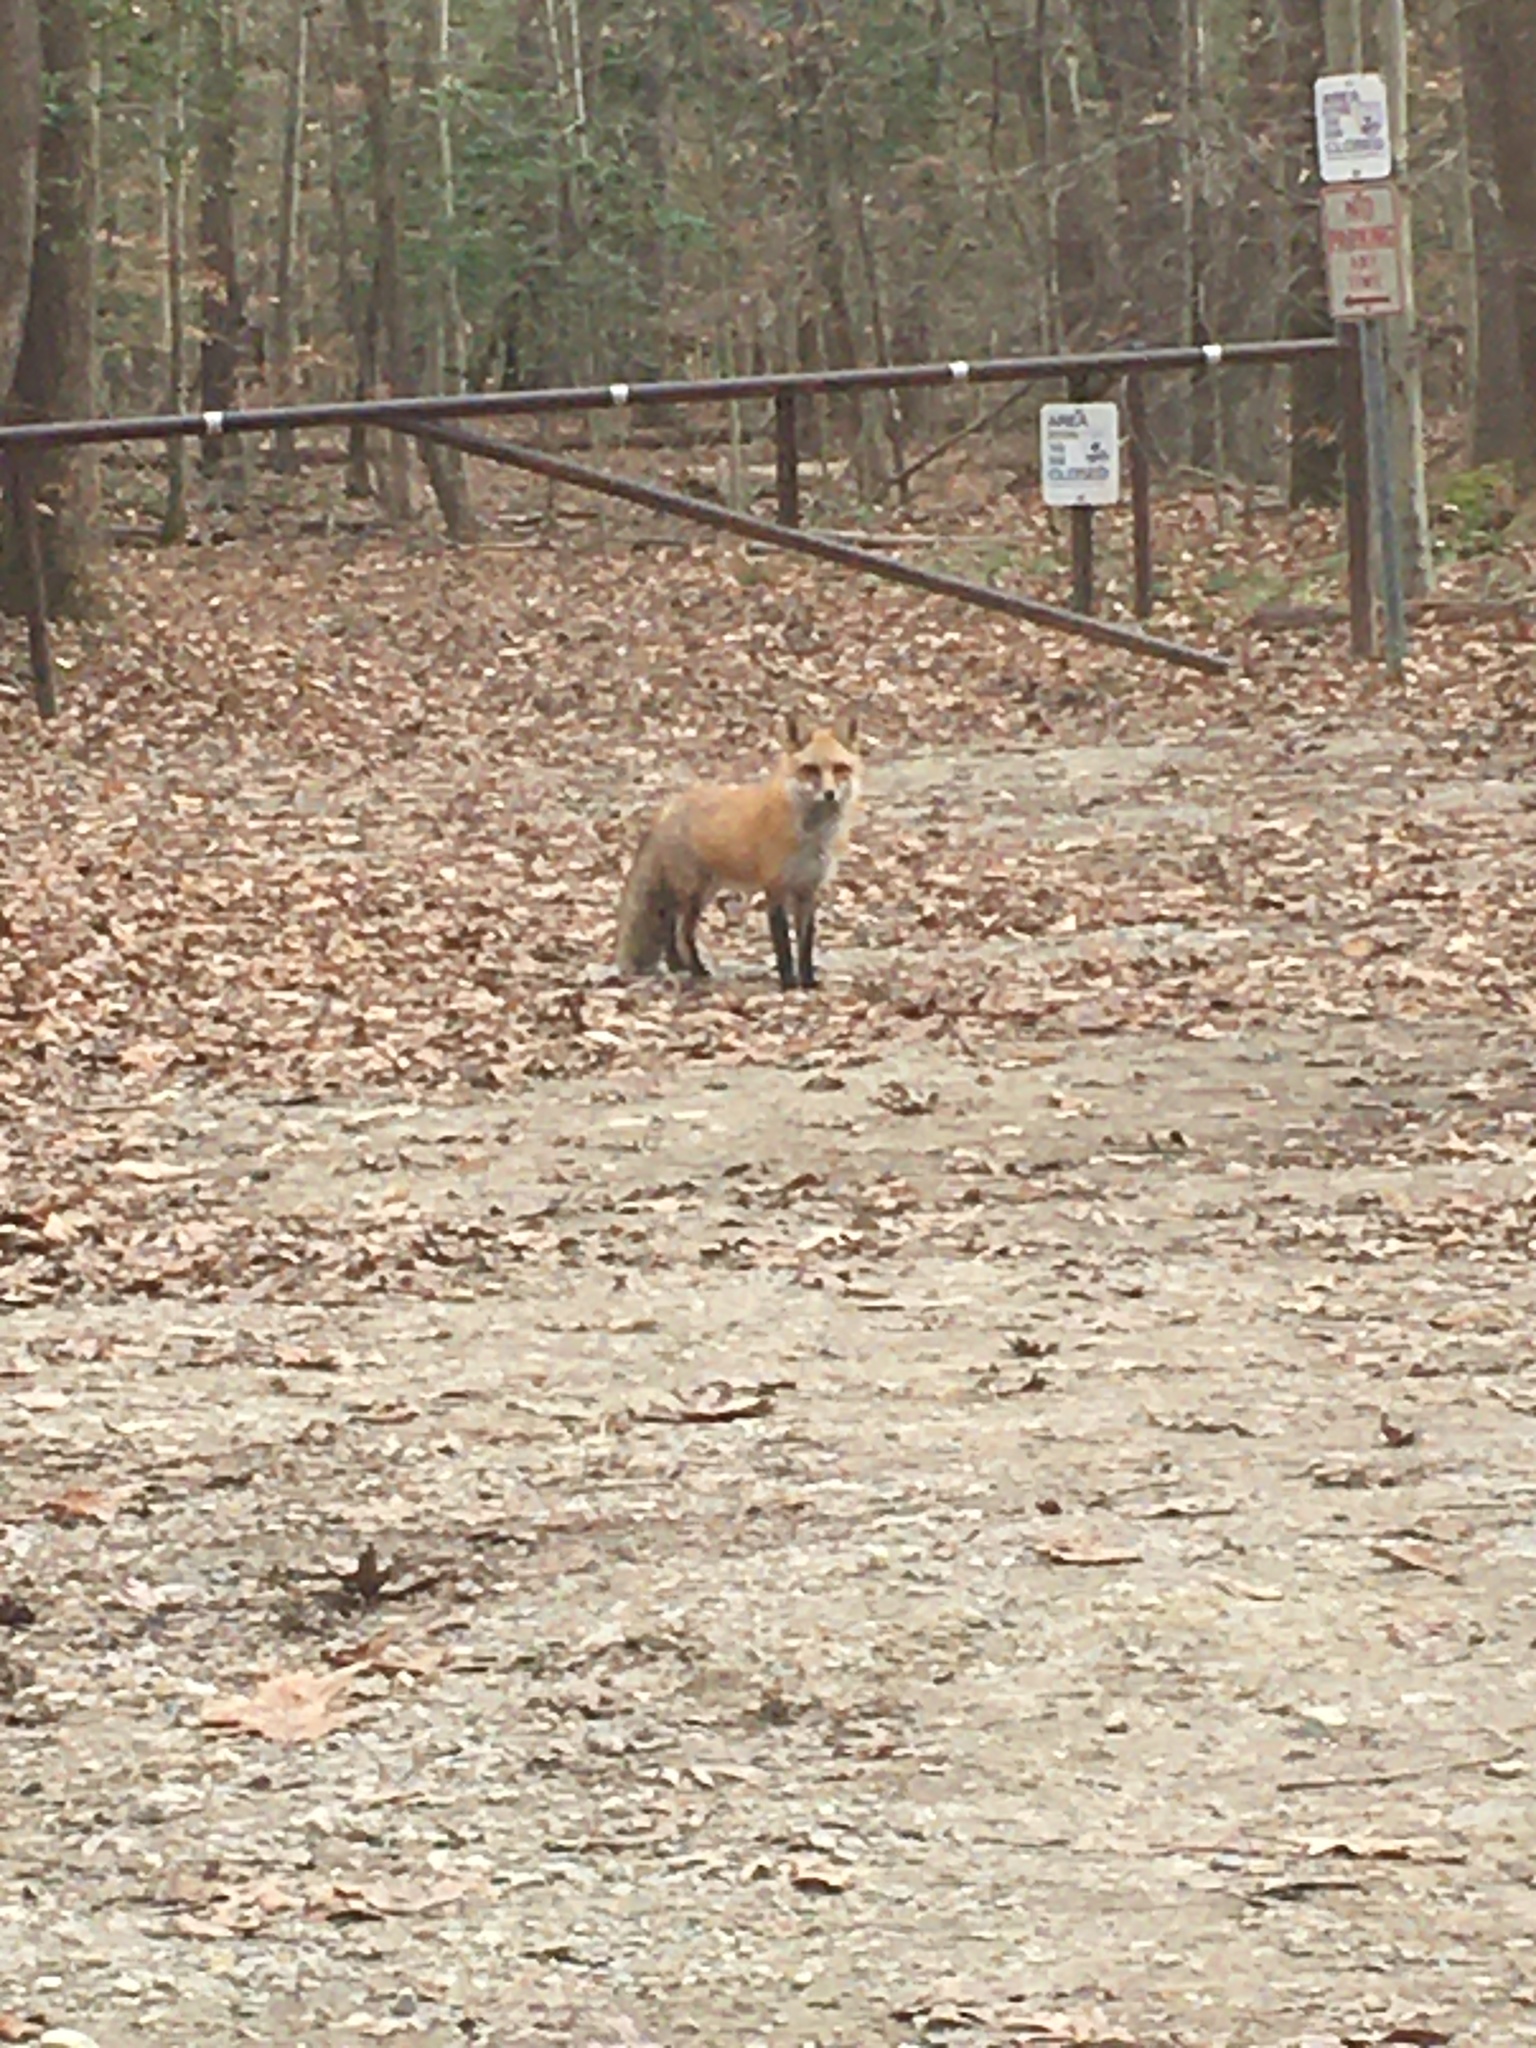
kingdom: Animalia
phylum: Chordata
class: Mammalia
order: Carnivora
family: Canidae
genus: Vulpes
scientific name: Vulpes vulpes
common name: Red fox
